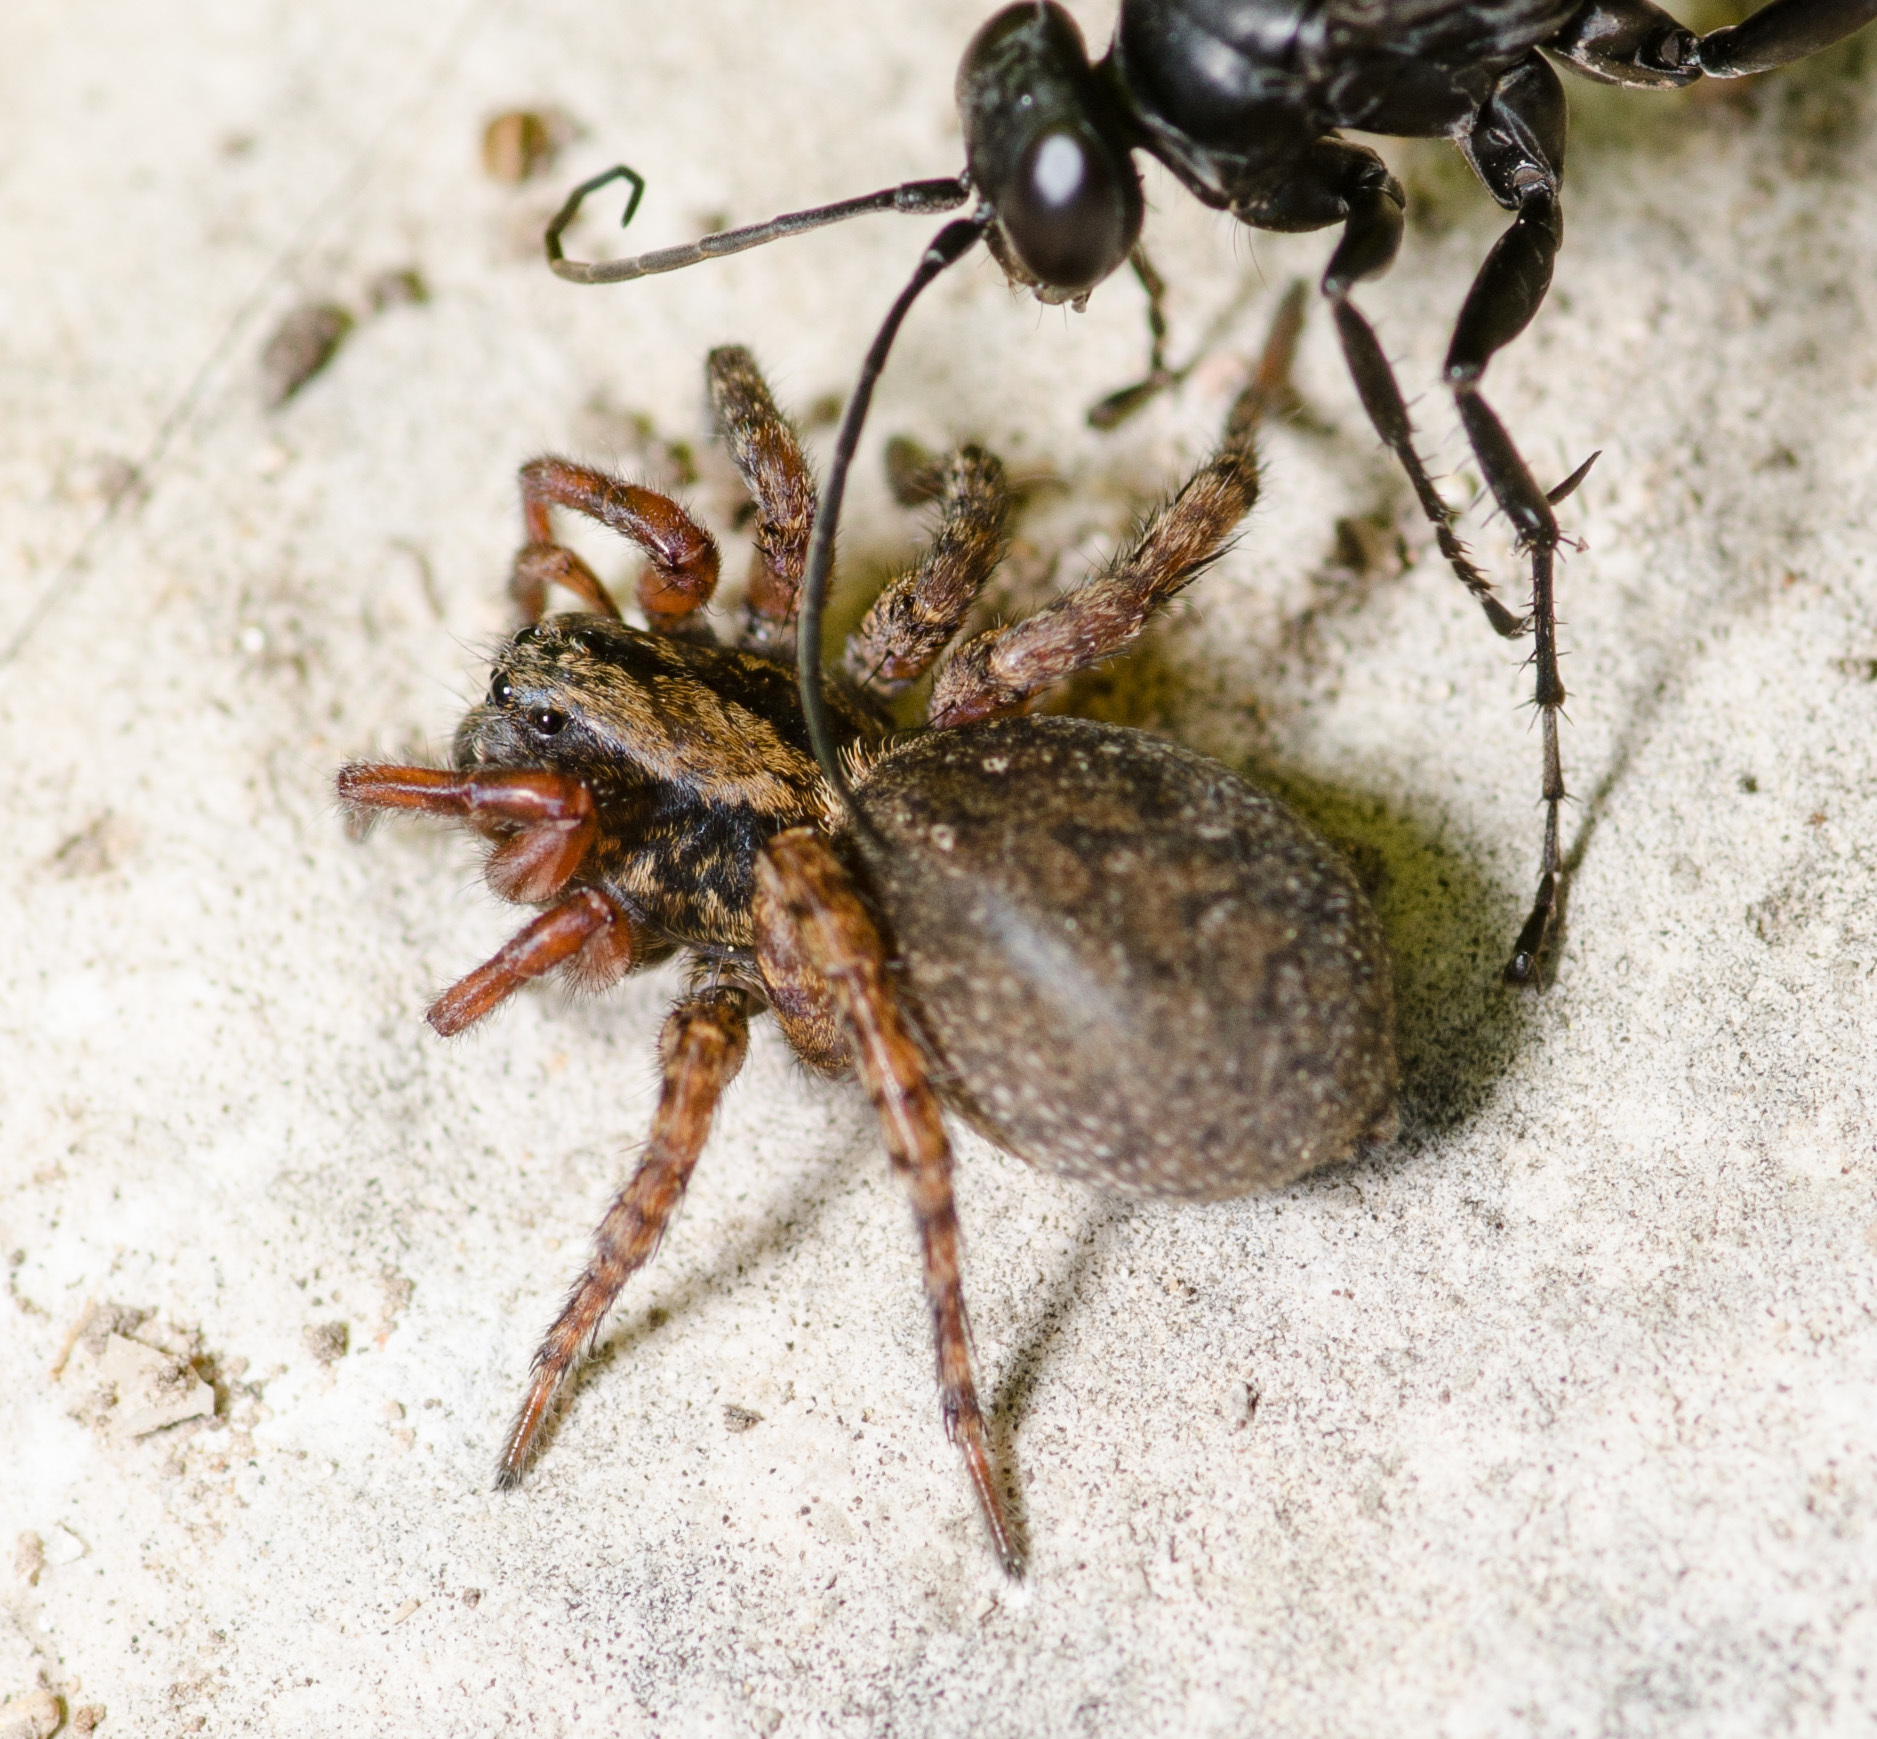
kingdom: Animalia
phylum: Arthropoda
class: Arachnida
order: Araneae
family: Lycosidae
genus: Trochosa
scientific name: Trochosa sepulchralis
